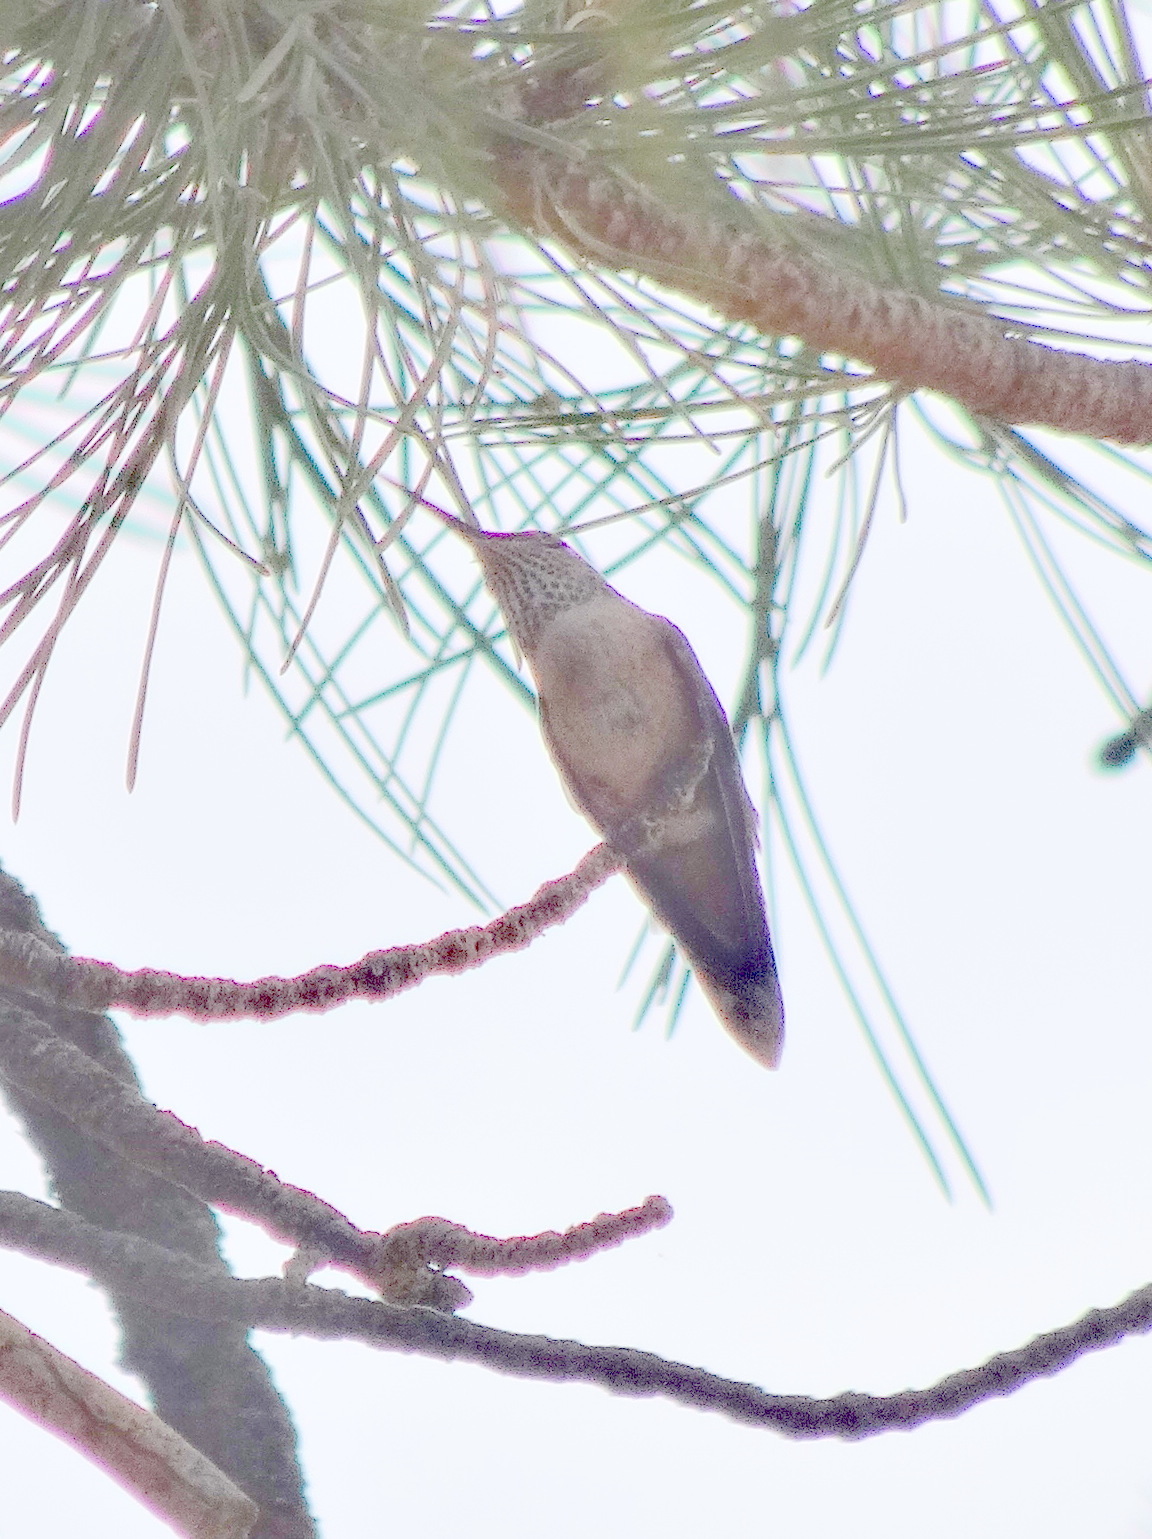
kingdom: Animalia
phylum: Chordata
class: Aves
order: Apodiformes
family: Trochilidae
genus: Selasphorus
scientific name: Selasphorus platycercus
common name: Broad-tailed hummingbird
